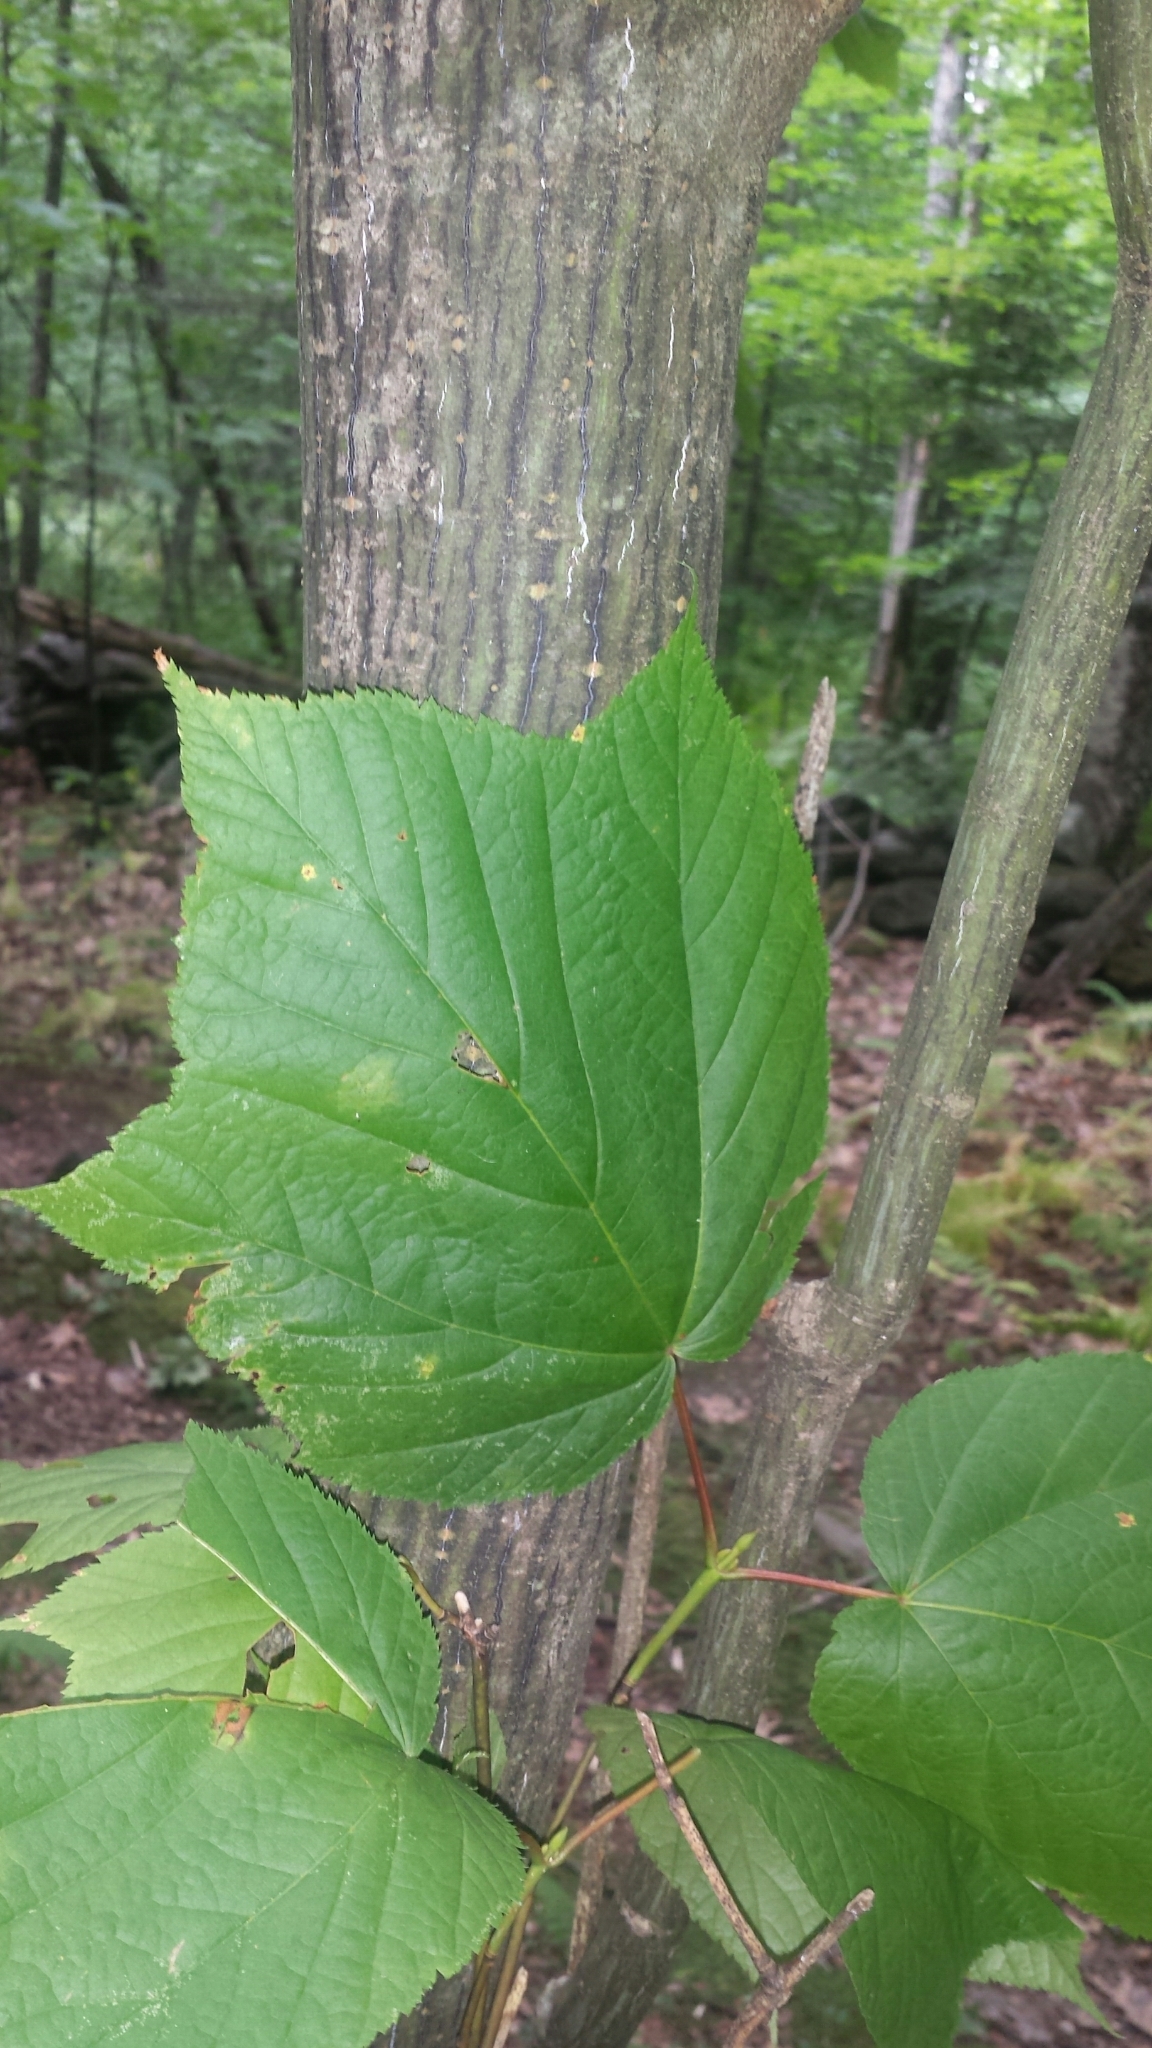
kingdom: Plantae
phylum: Tracheophyta
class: Magnoliopsida
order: Sapindales
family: Sapindaceae
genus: Acer
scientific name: Acer pensylvanicum
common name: Moosewood
